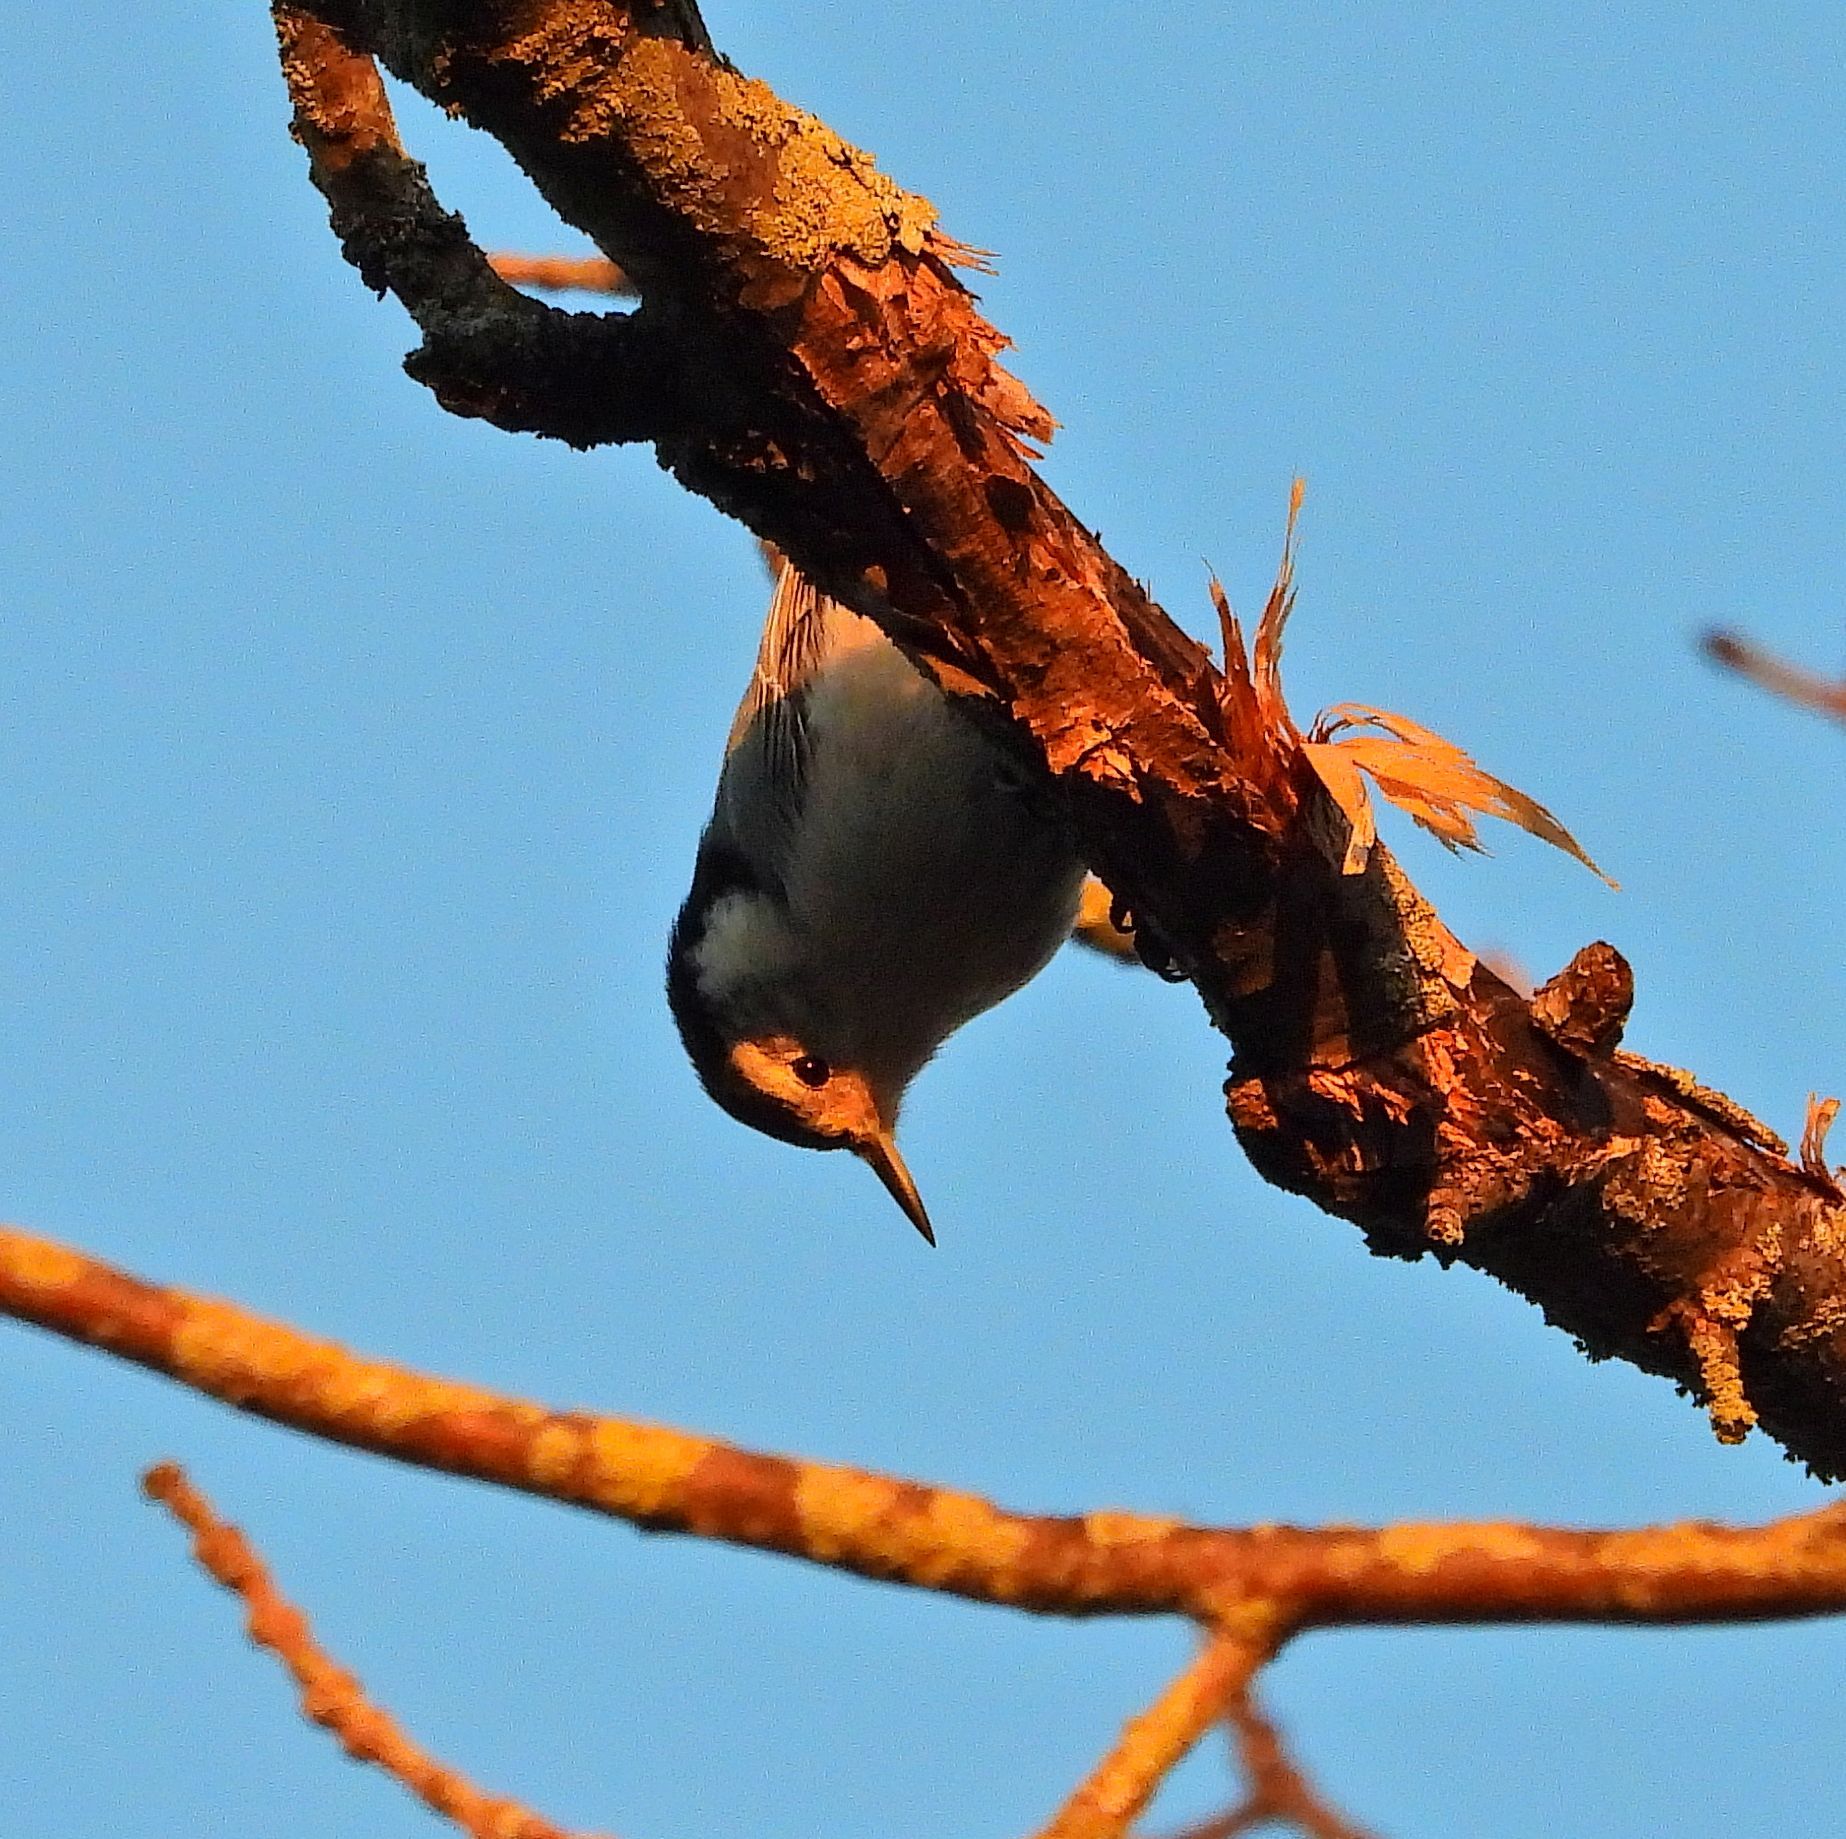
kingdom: Animalia
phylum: Chordata
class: Aves
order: Passeriformes
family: Sittidae
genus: Sitta
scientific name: Sitta carolinensis
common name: White-breasted nuthatch
